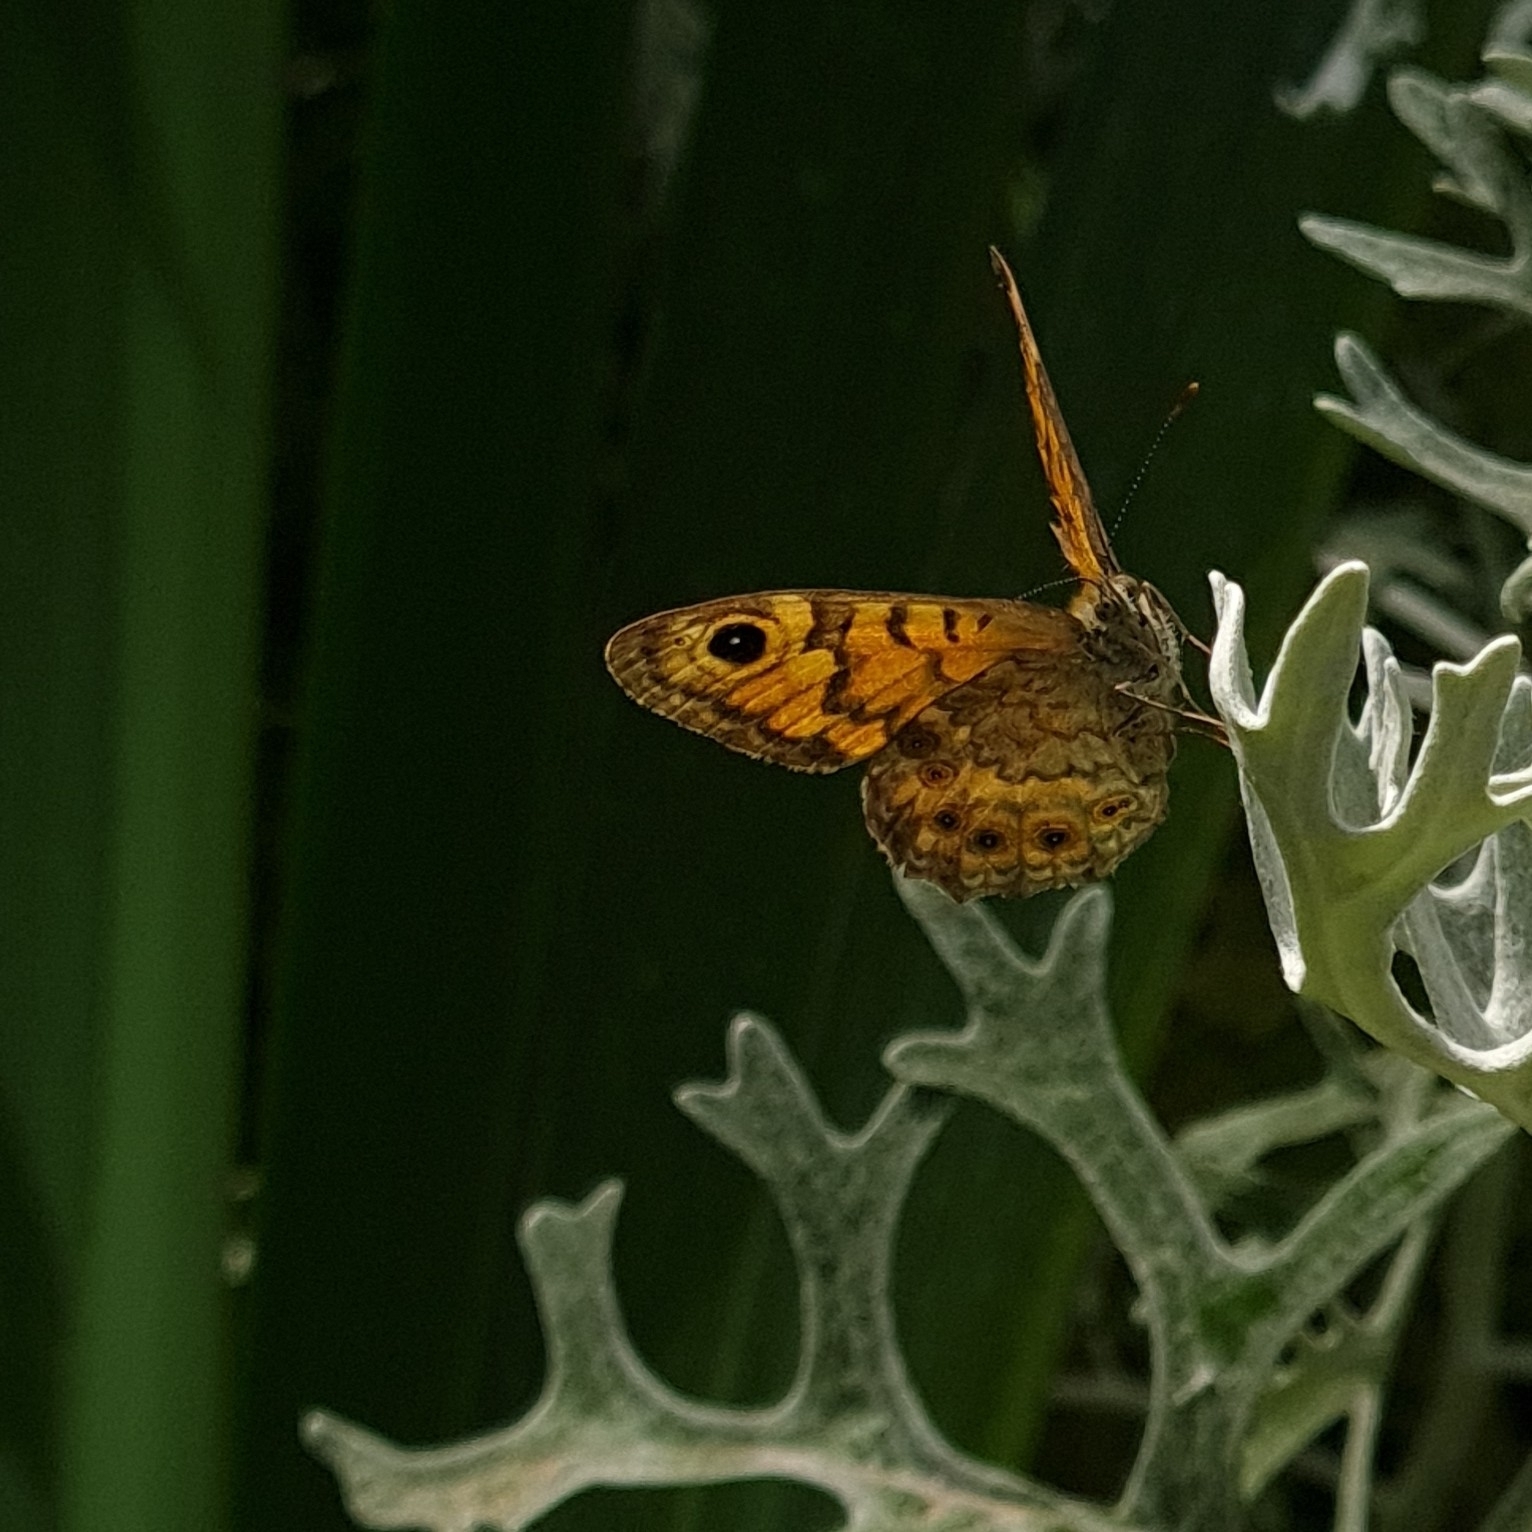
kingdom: Animalia
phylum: Arthropoda
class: Insecta
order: Lepidoptera
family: Nymphalidae
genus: Pararge
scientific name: Pararge Lasiommata megera
